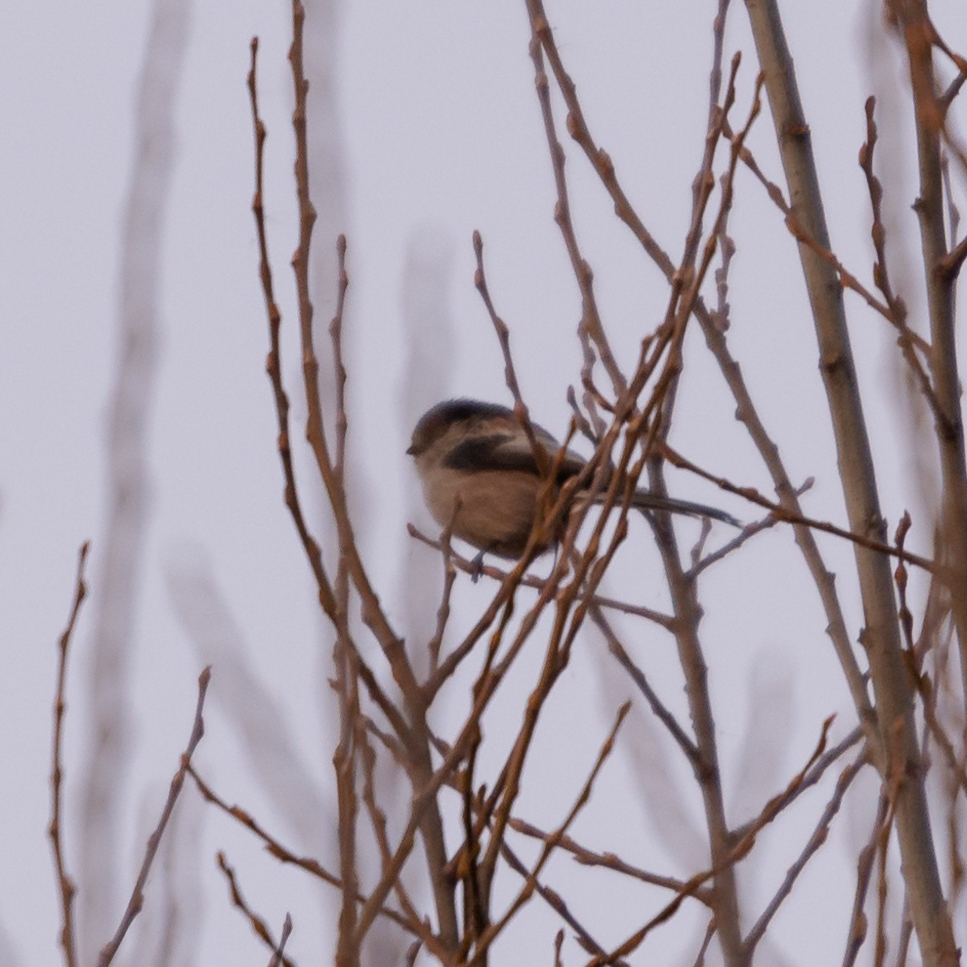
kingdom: Animalia
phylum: Chordata
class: Aves
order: Passeriformes
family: Aegithalidae
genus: Aegithalos
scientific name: Aegithalos caudatus
